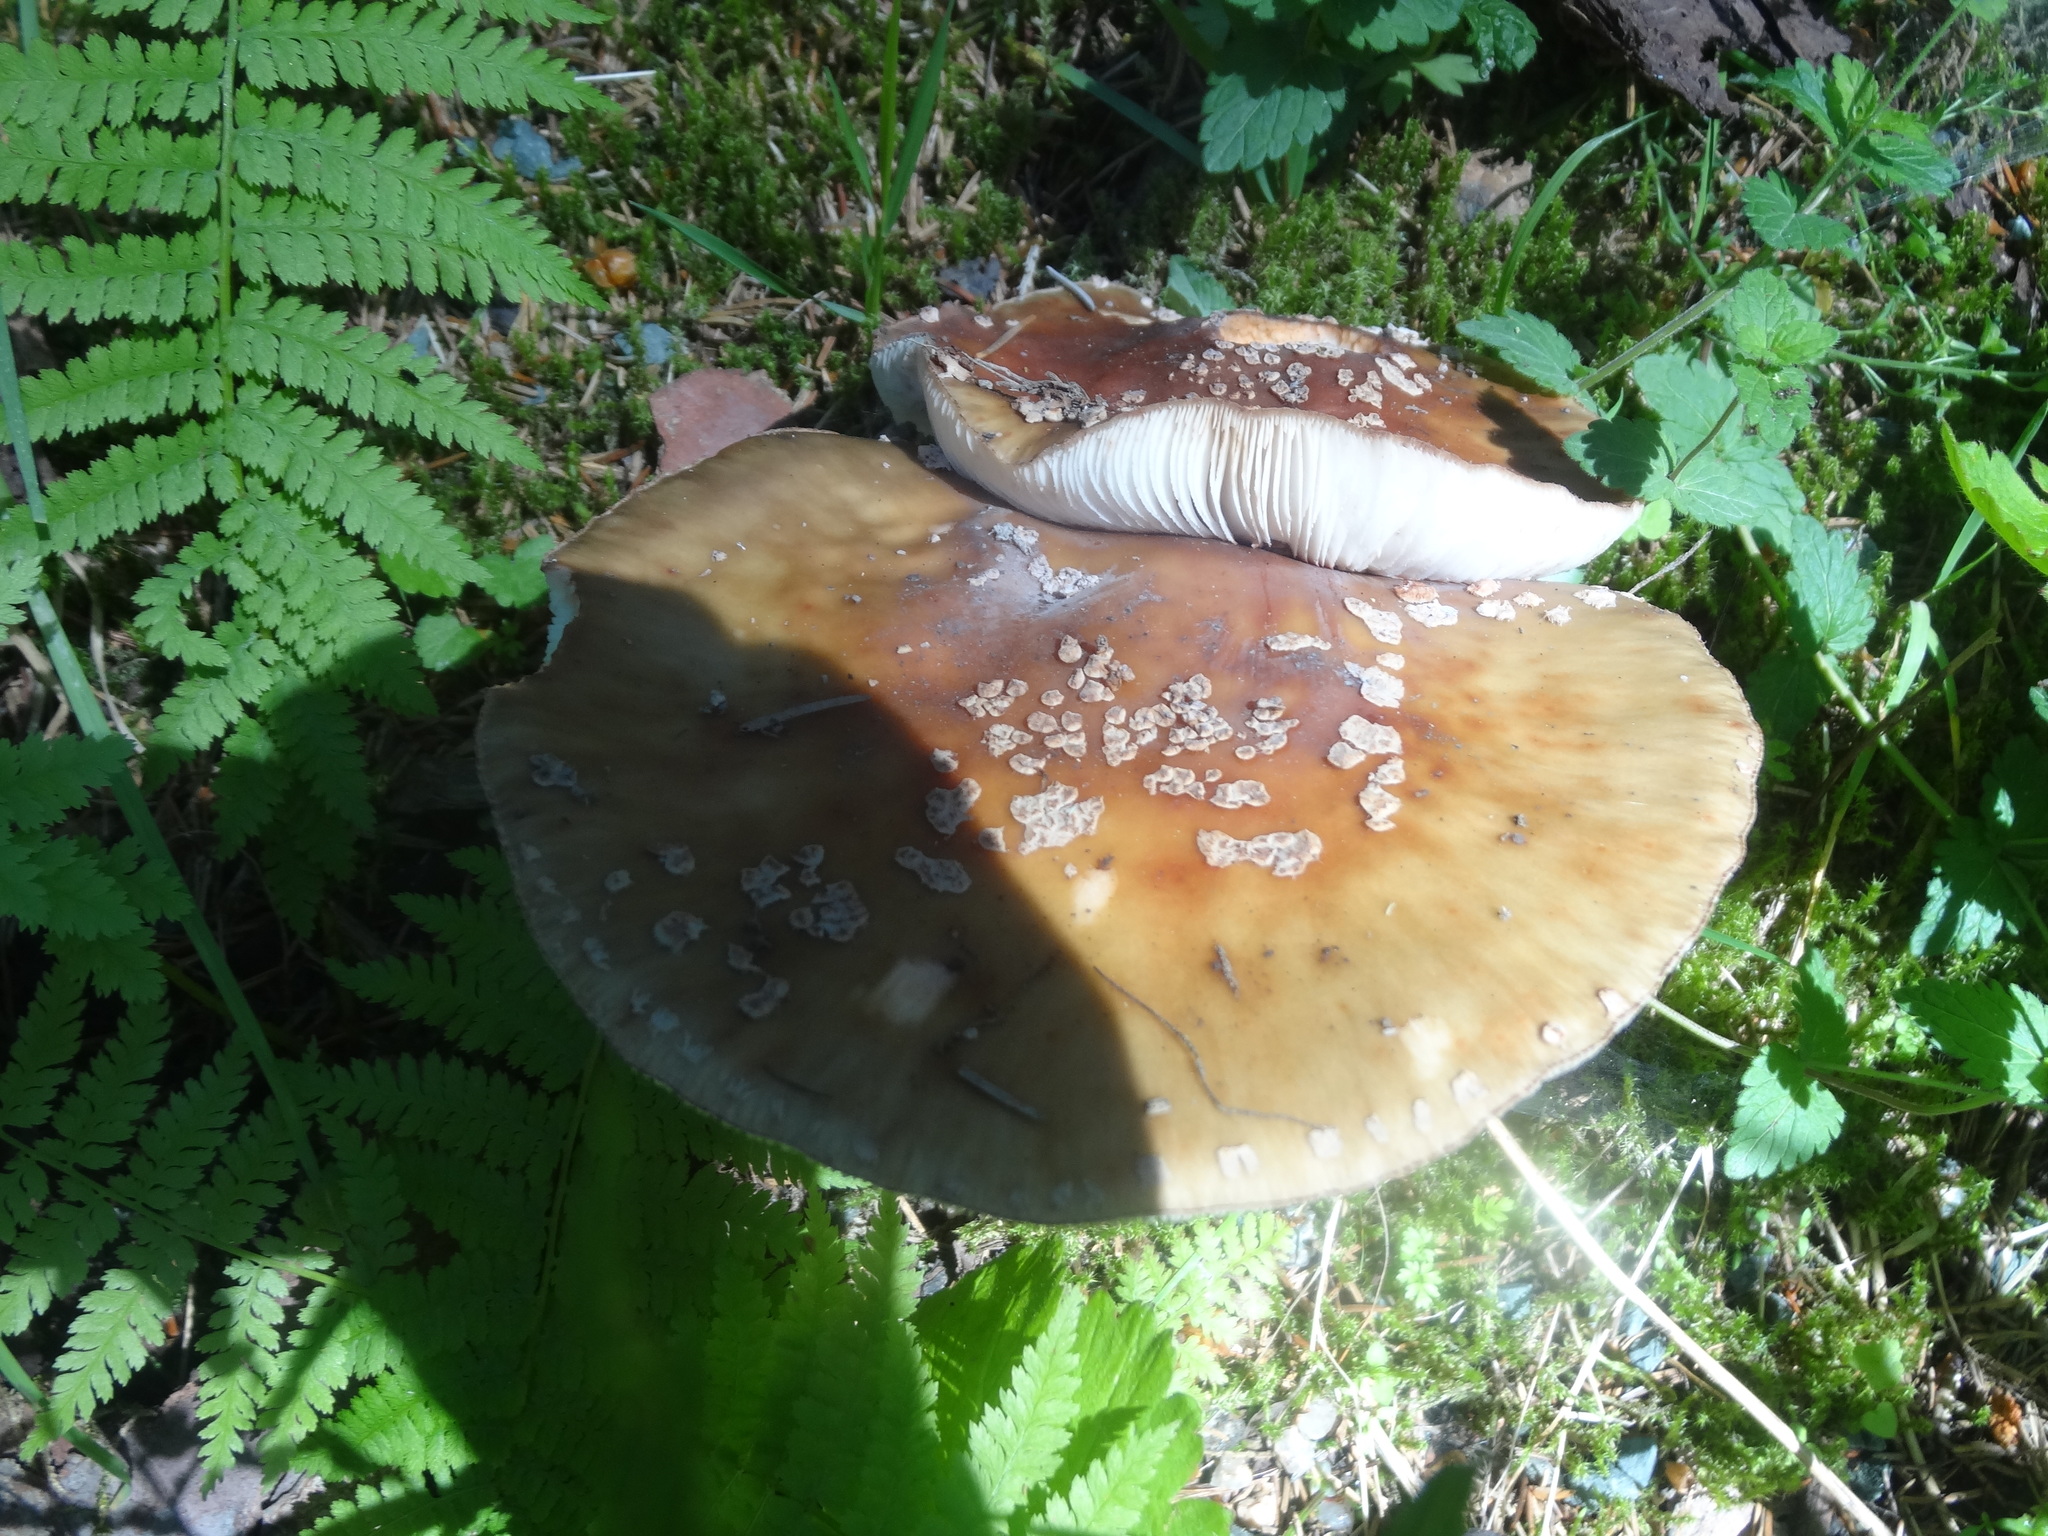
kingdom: Fungi
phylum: Basidiomycota
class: Agaricomycetes
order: Agaricales
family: Amanitaceae
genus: Amanita
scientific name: Amanita rubescens
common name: Blusher
